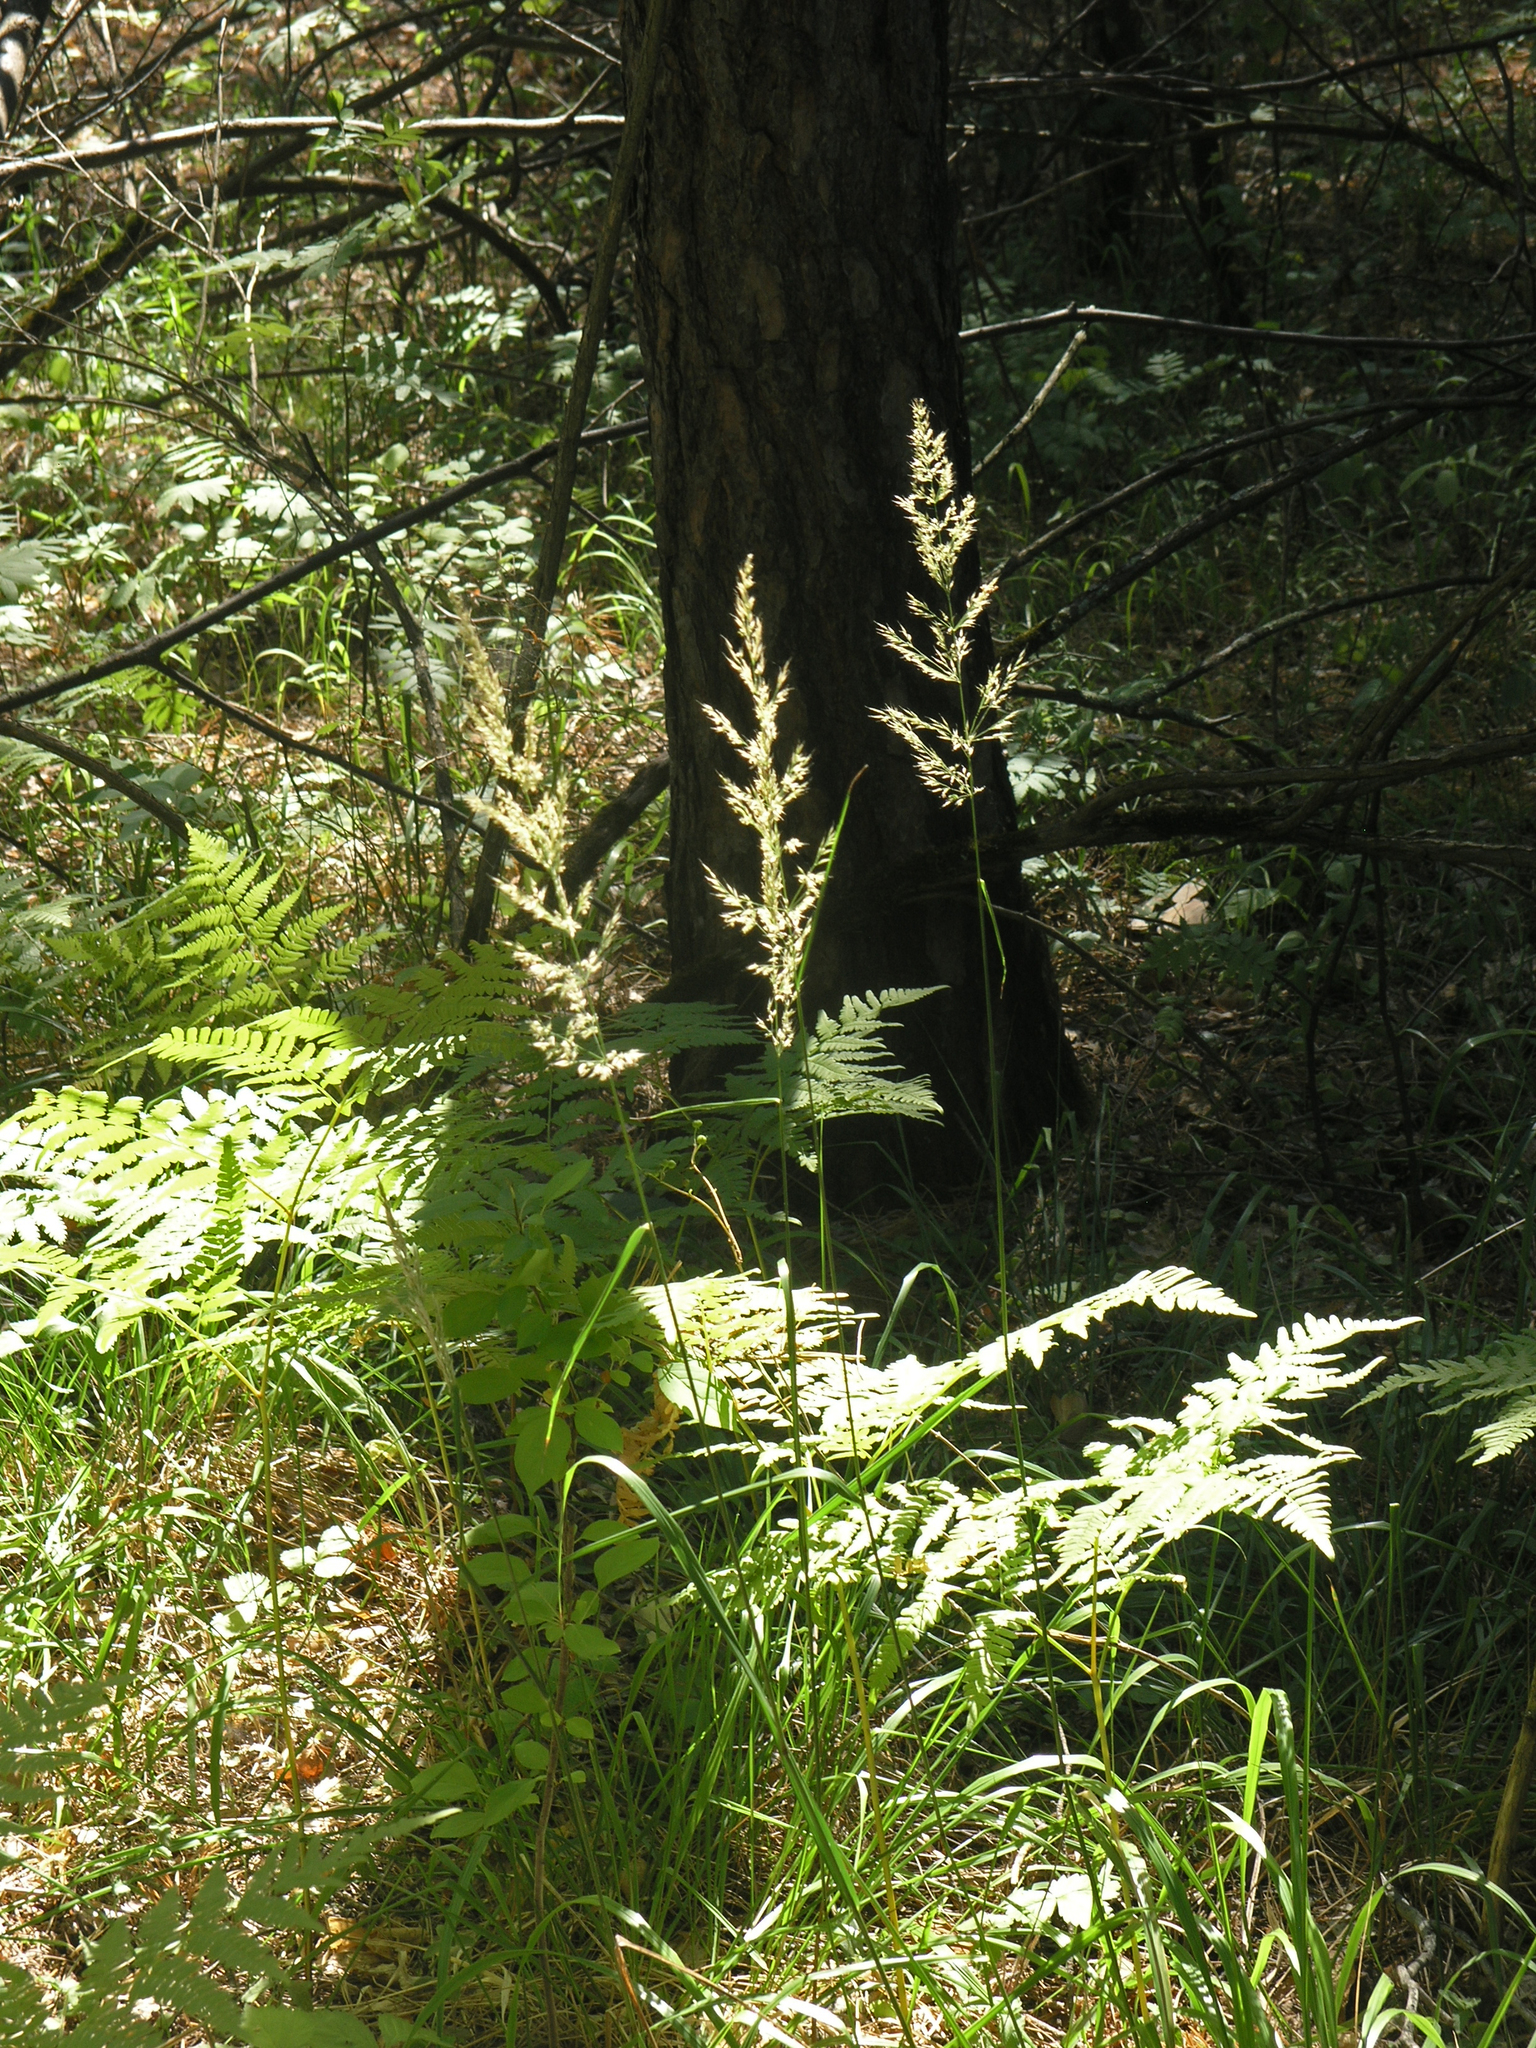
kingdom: Plantae
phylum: Tracheophyta
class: Liliopsida
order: Poales
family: Poaceae
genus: Calamagrostis
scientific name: Calamagrostis arundinacea
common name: Metskastik
